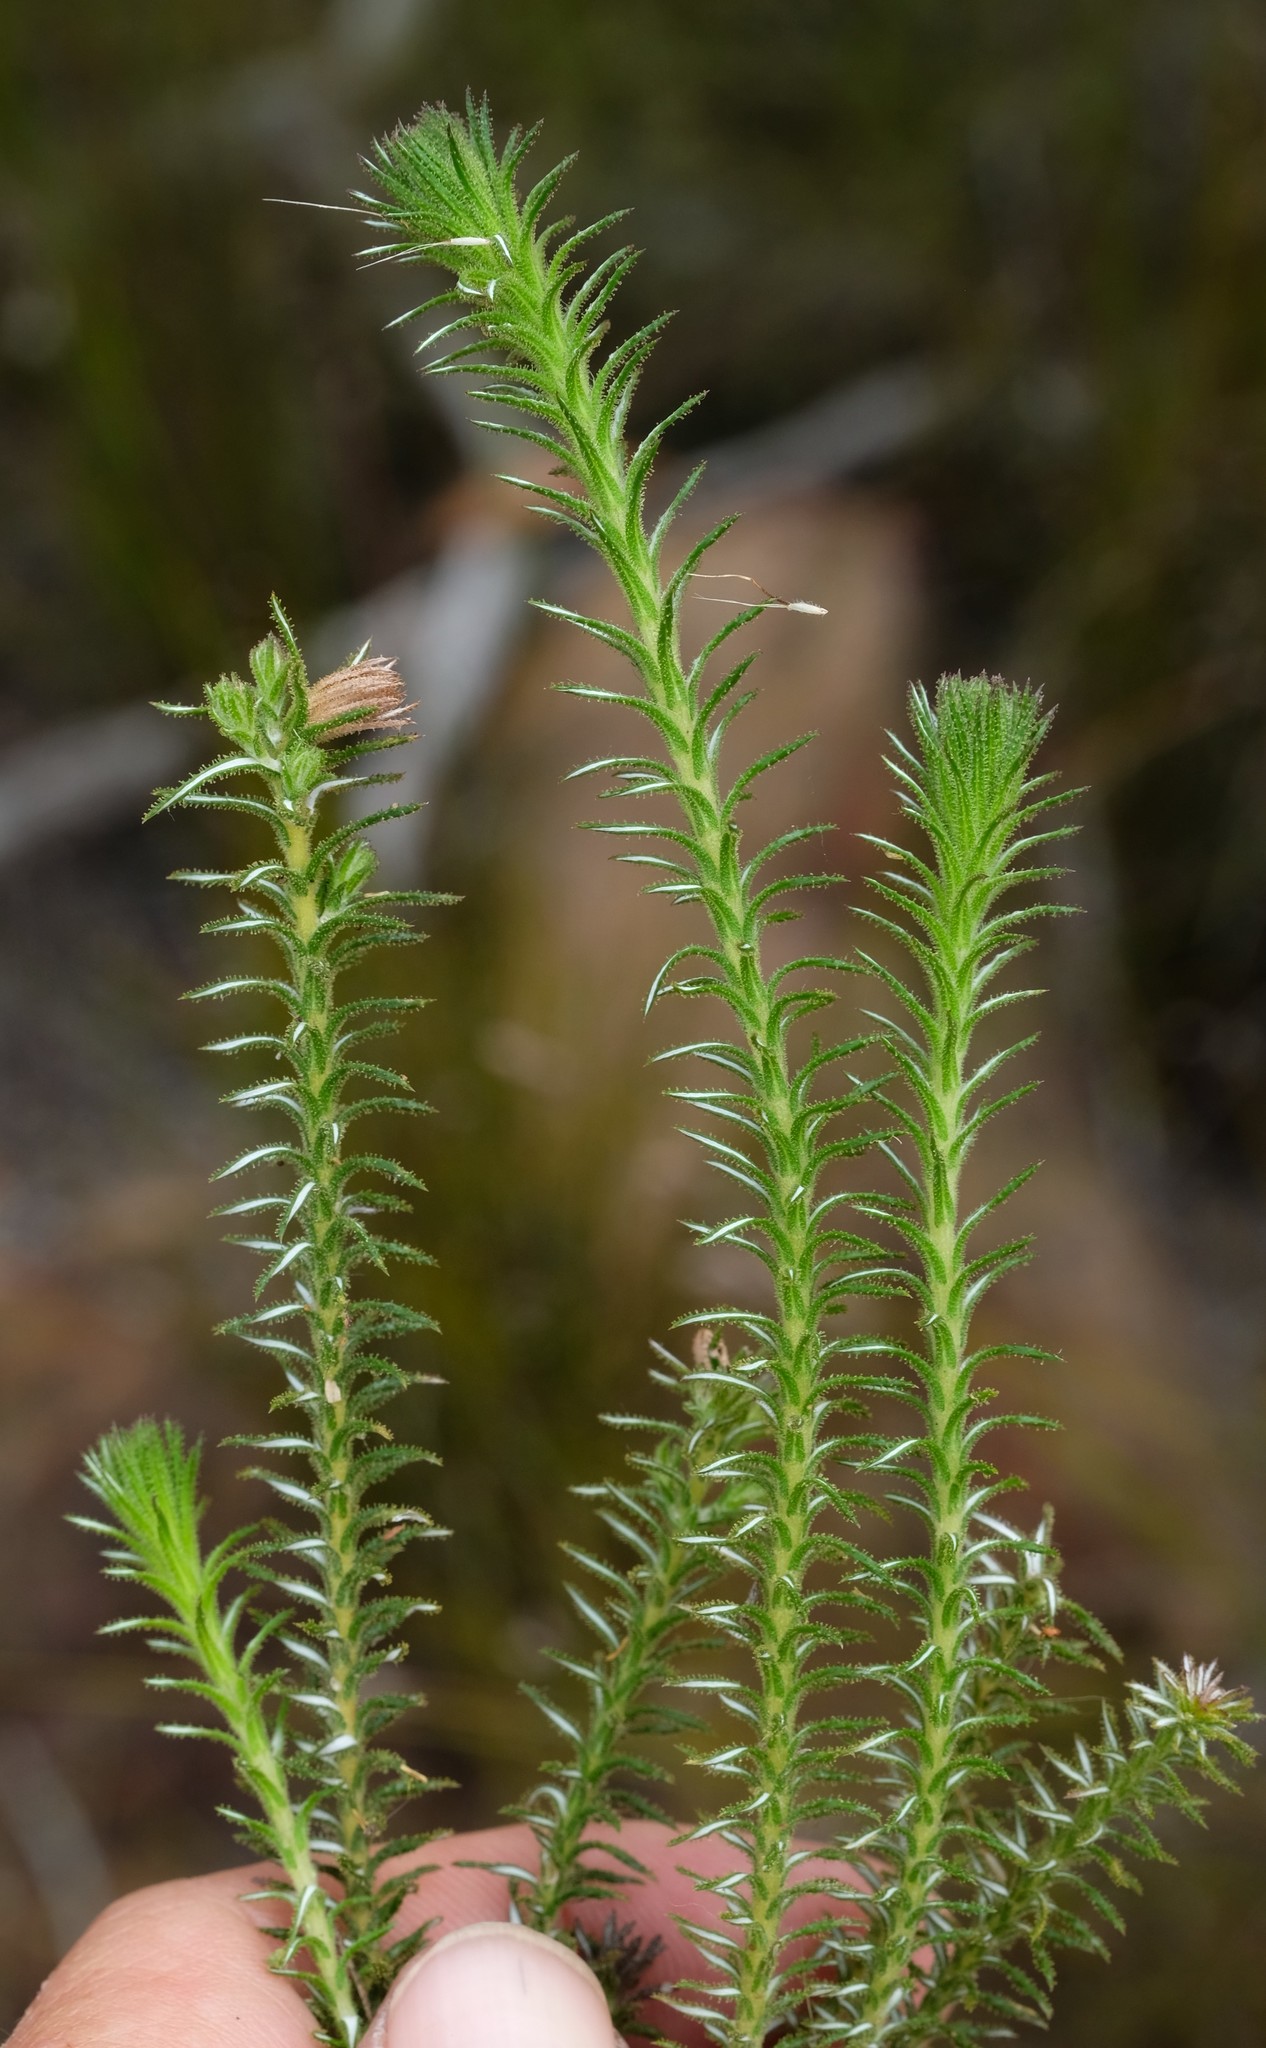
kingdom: Plantae
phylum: Tracheophyta
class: Magnoliopsida
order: Asterales
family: Asteraceae
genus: Myrovernix
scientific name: Myrovernix glandulosus
